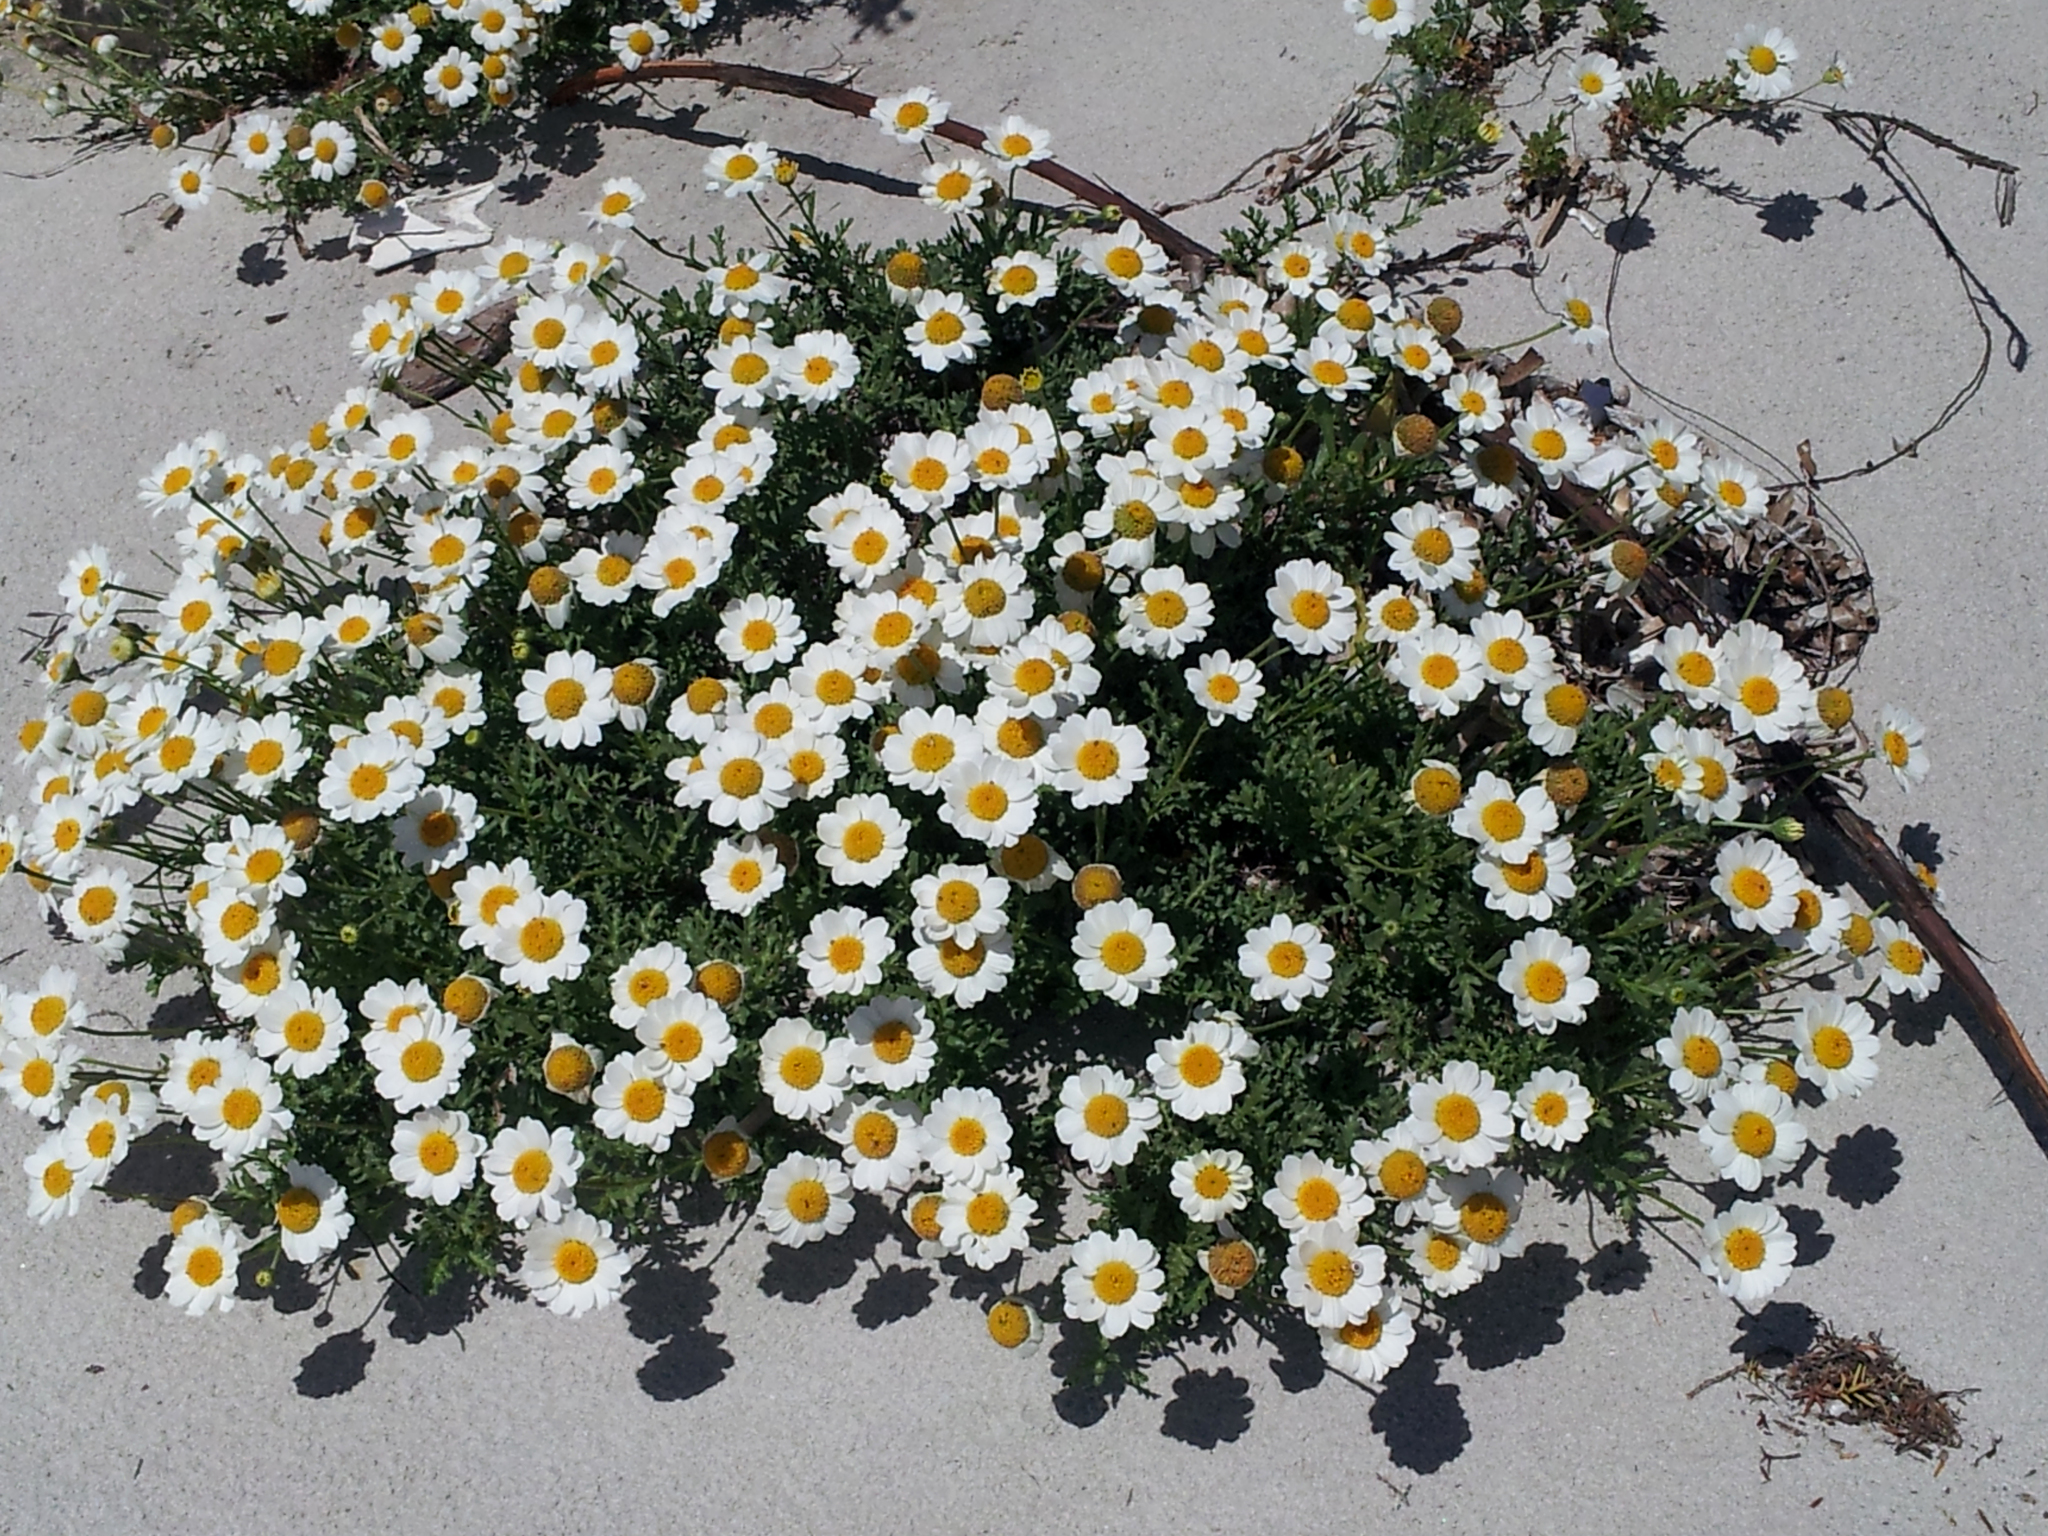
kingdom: Plantae
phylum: Tracheophyta
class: Magnoliopsida
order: Asterales
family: Asteraceae
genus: Anthemis
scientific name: Anthemis maritima
